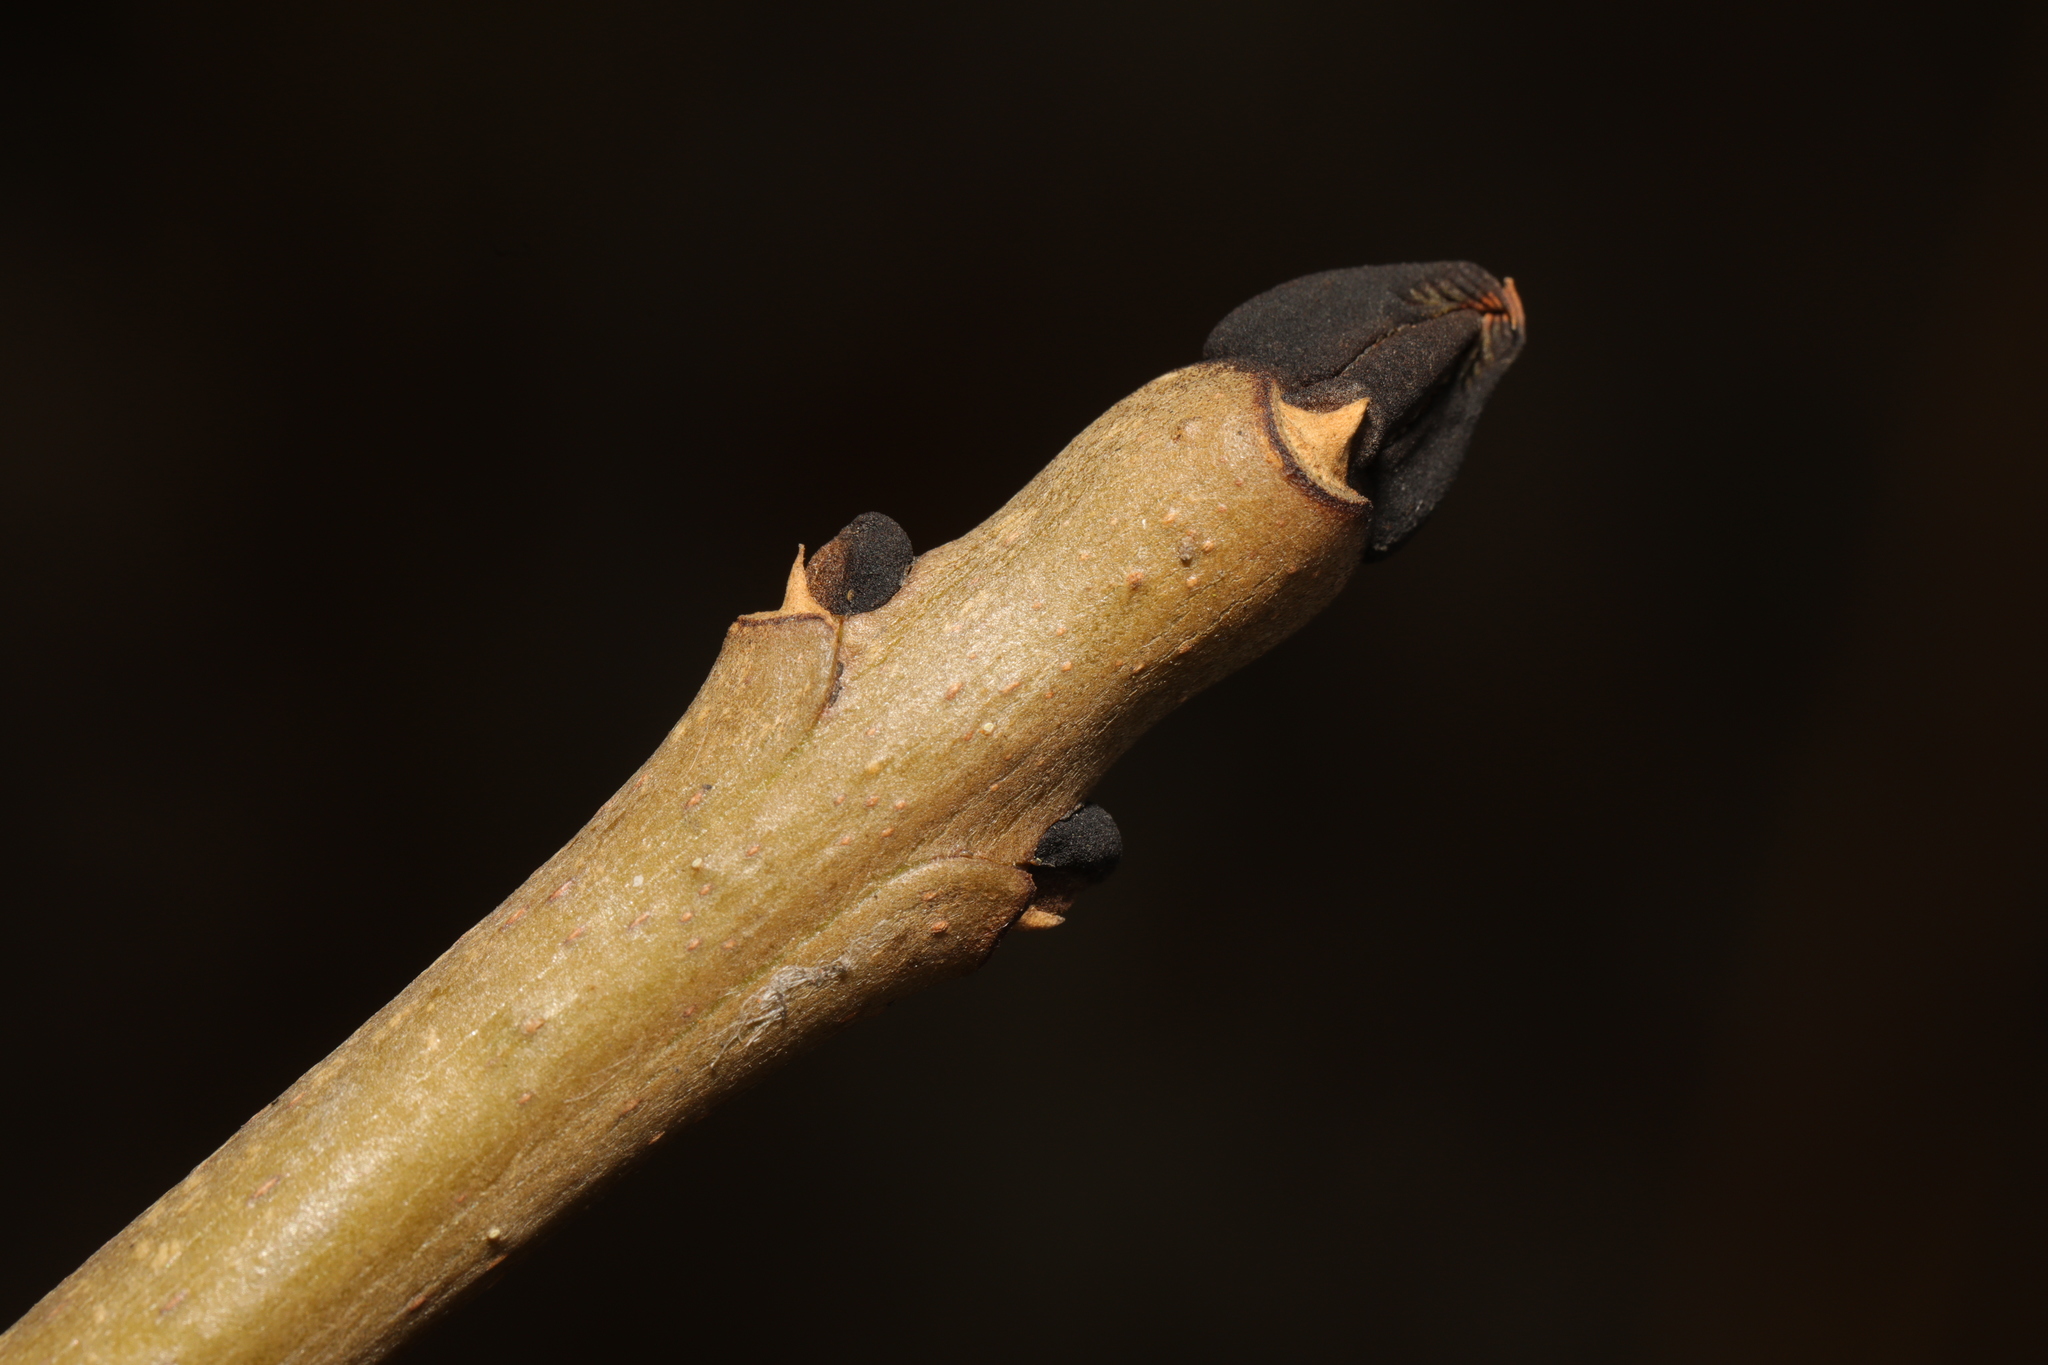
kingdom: Plantae
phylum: Tracheophyta
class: Magnoliopsida
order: Lamiales
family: Oleaceae
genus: Fraxinus
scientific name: Fraxinus excelsior
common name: European ash
